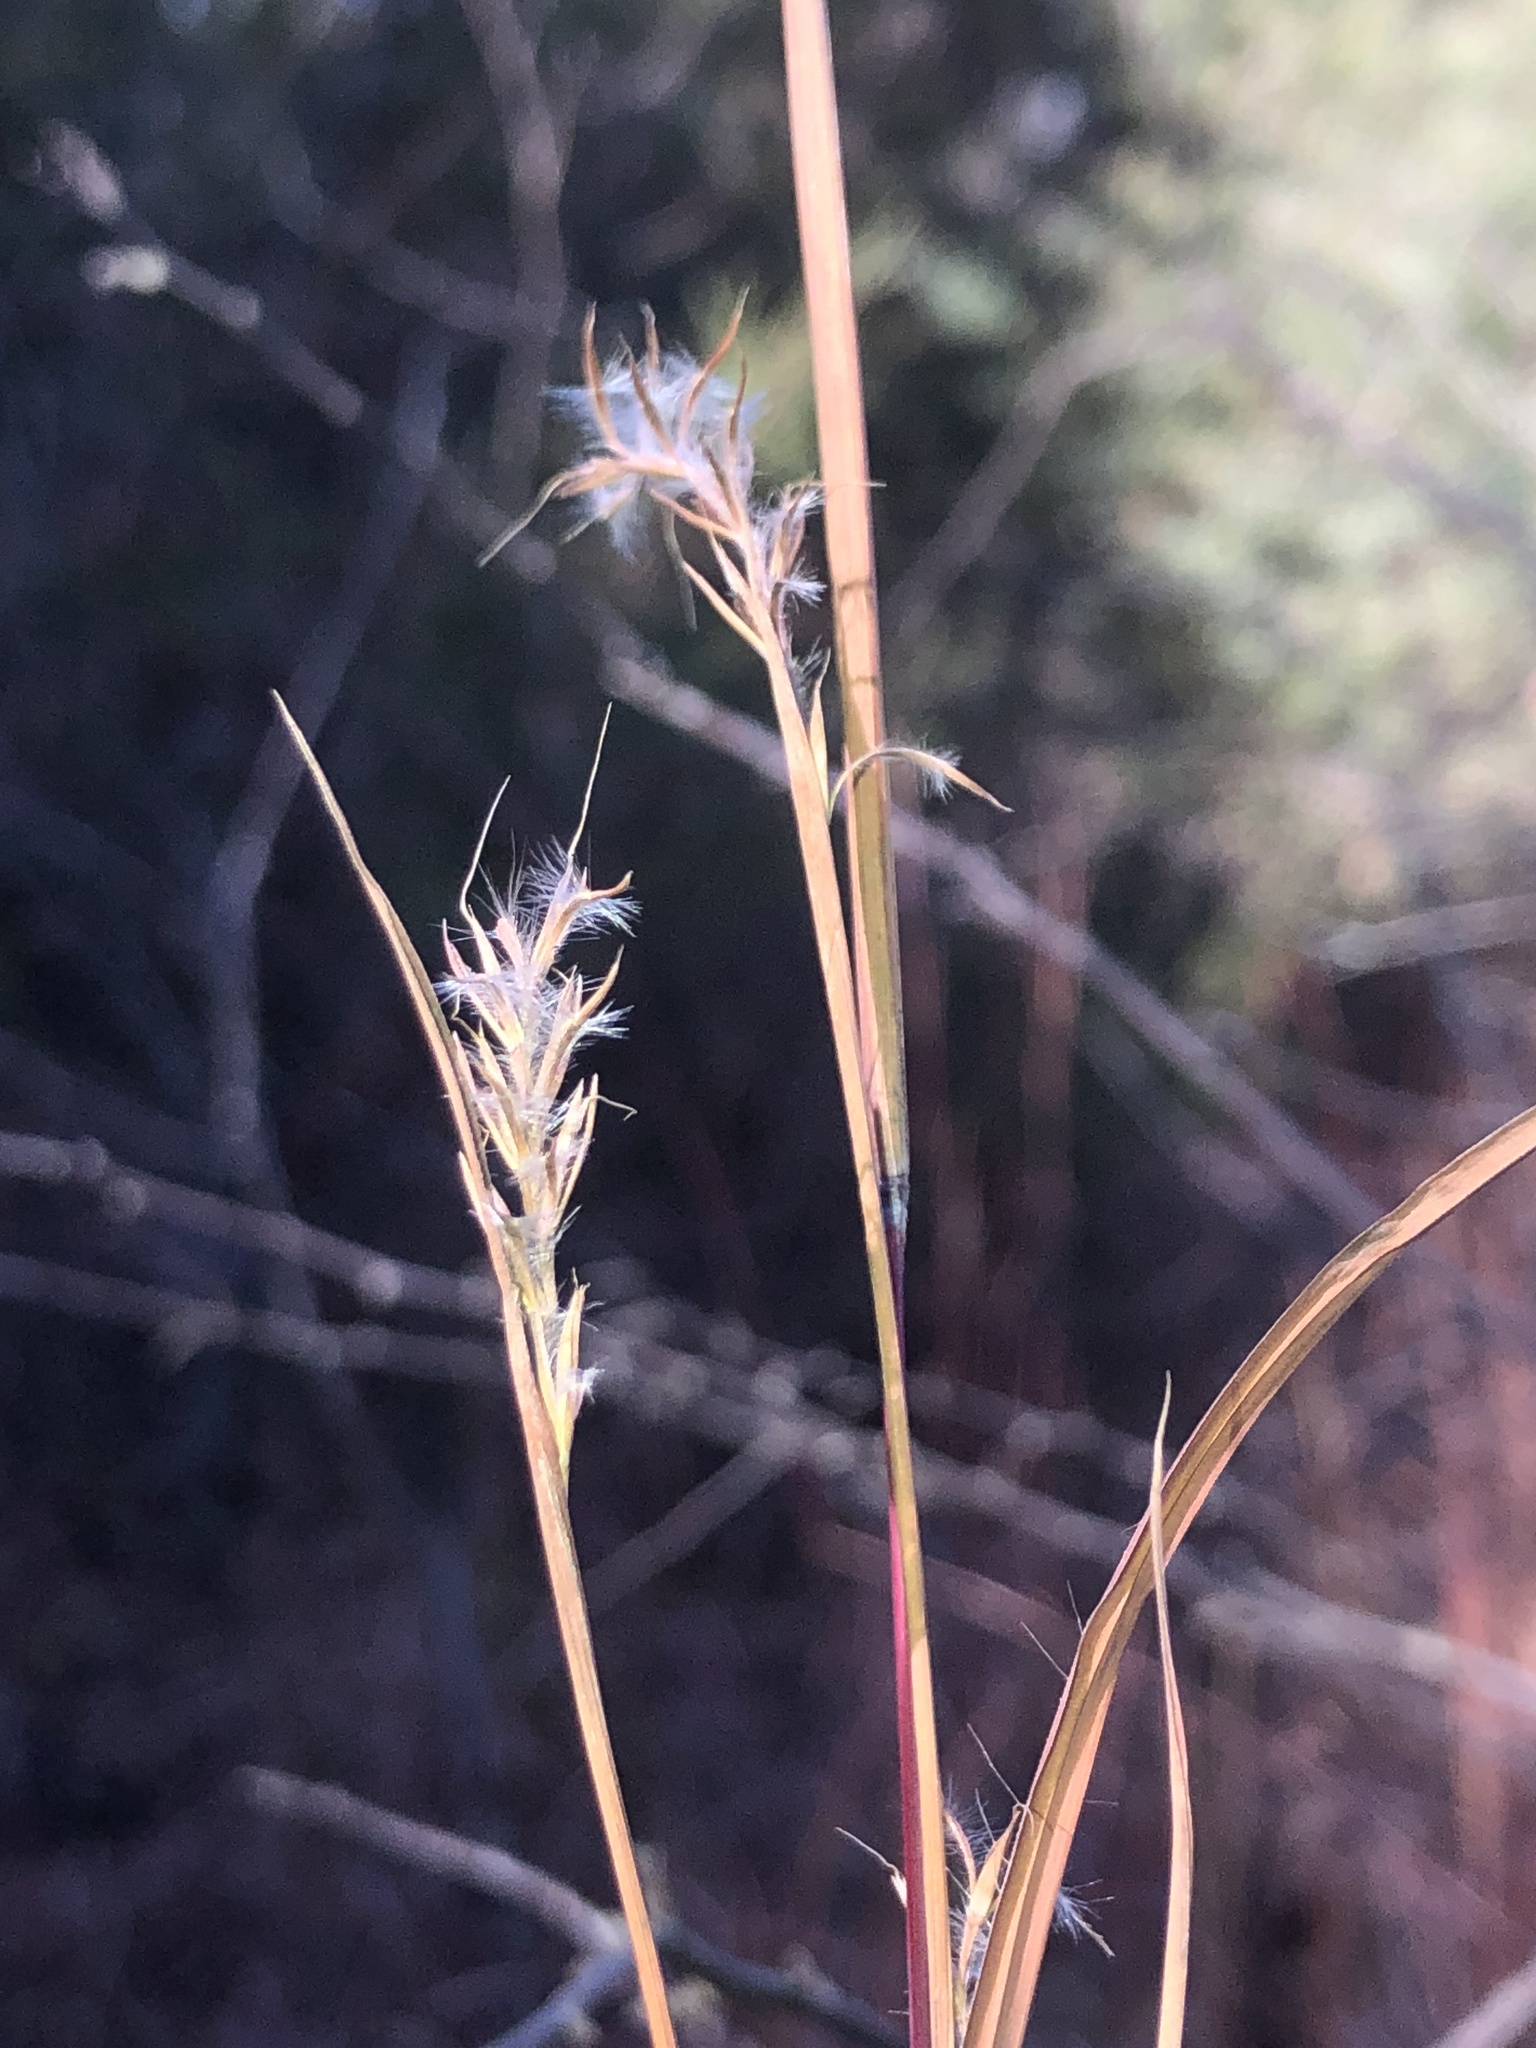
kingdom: Plantae
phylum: Tracheophyta
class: Liliopsida
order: Poales
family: Poaceae
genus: Schizachyrium
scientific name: Schizachyrium scoparium
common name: Little bluestem
